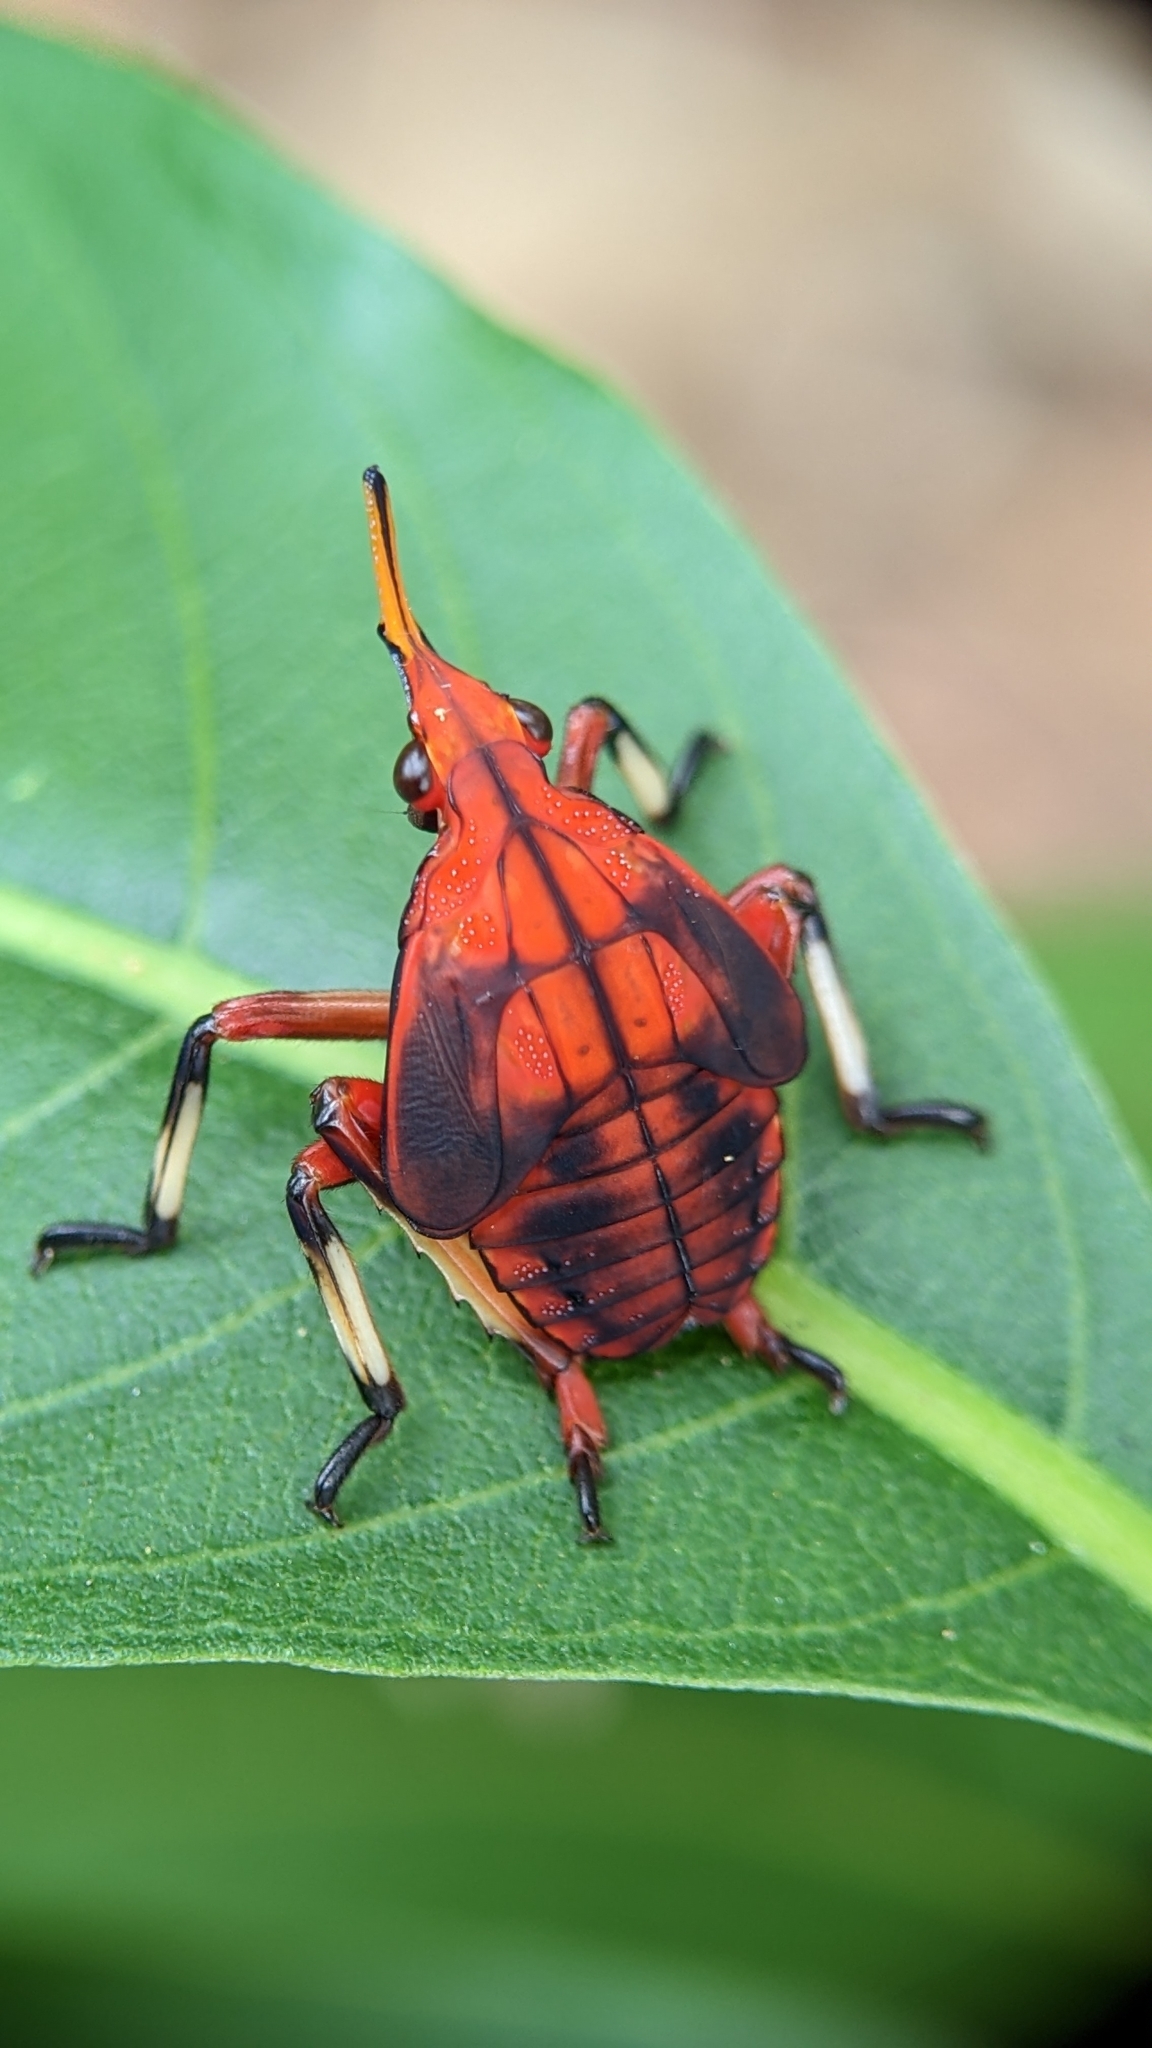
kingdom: Animalia
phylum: Arthropoda
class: Insecta
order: Hemiptera
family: Fulgoridae
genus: Kalidasa
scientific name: Kalidasa lanata
